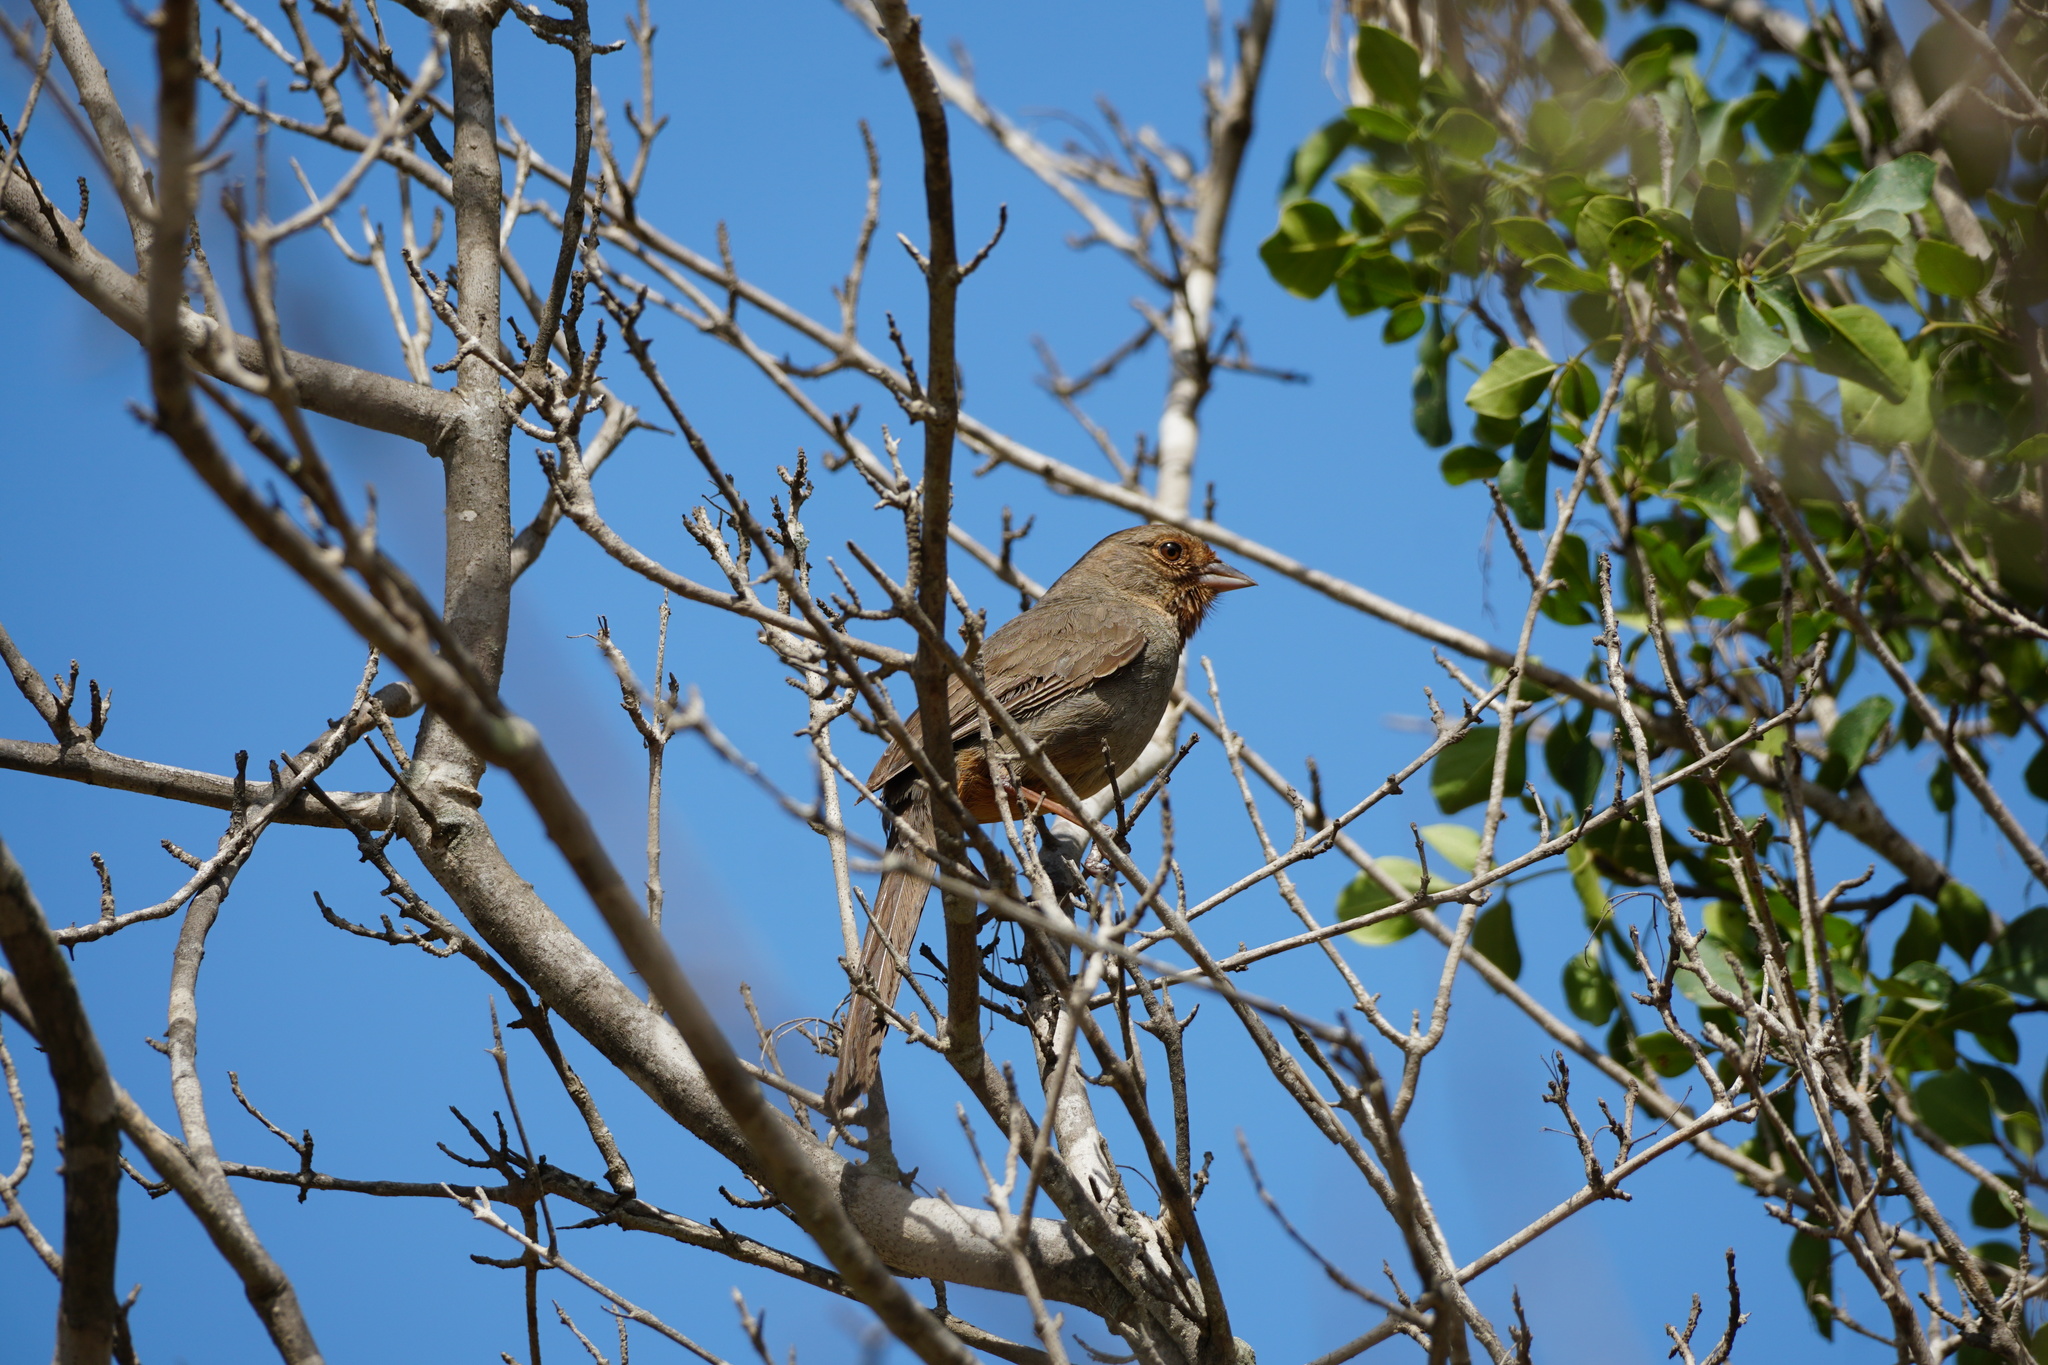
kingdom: Animalia
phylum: Chordata
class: Aves
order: Passeriformes
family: Passerellidae
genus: Melozone
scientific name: Melozone crissalis
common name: California towhee
